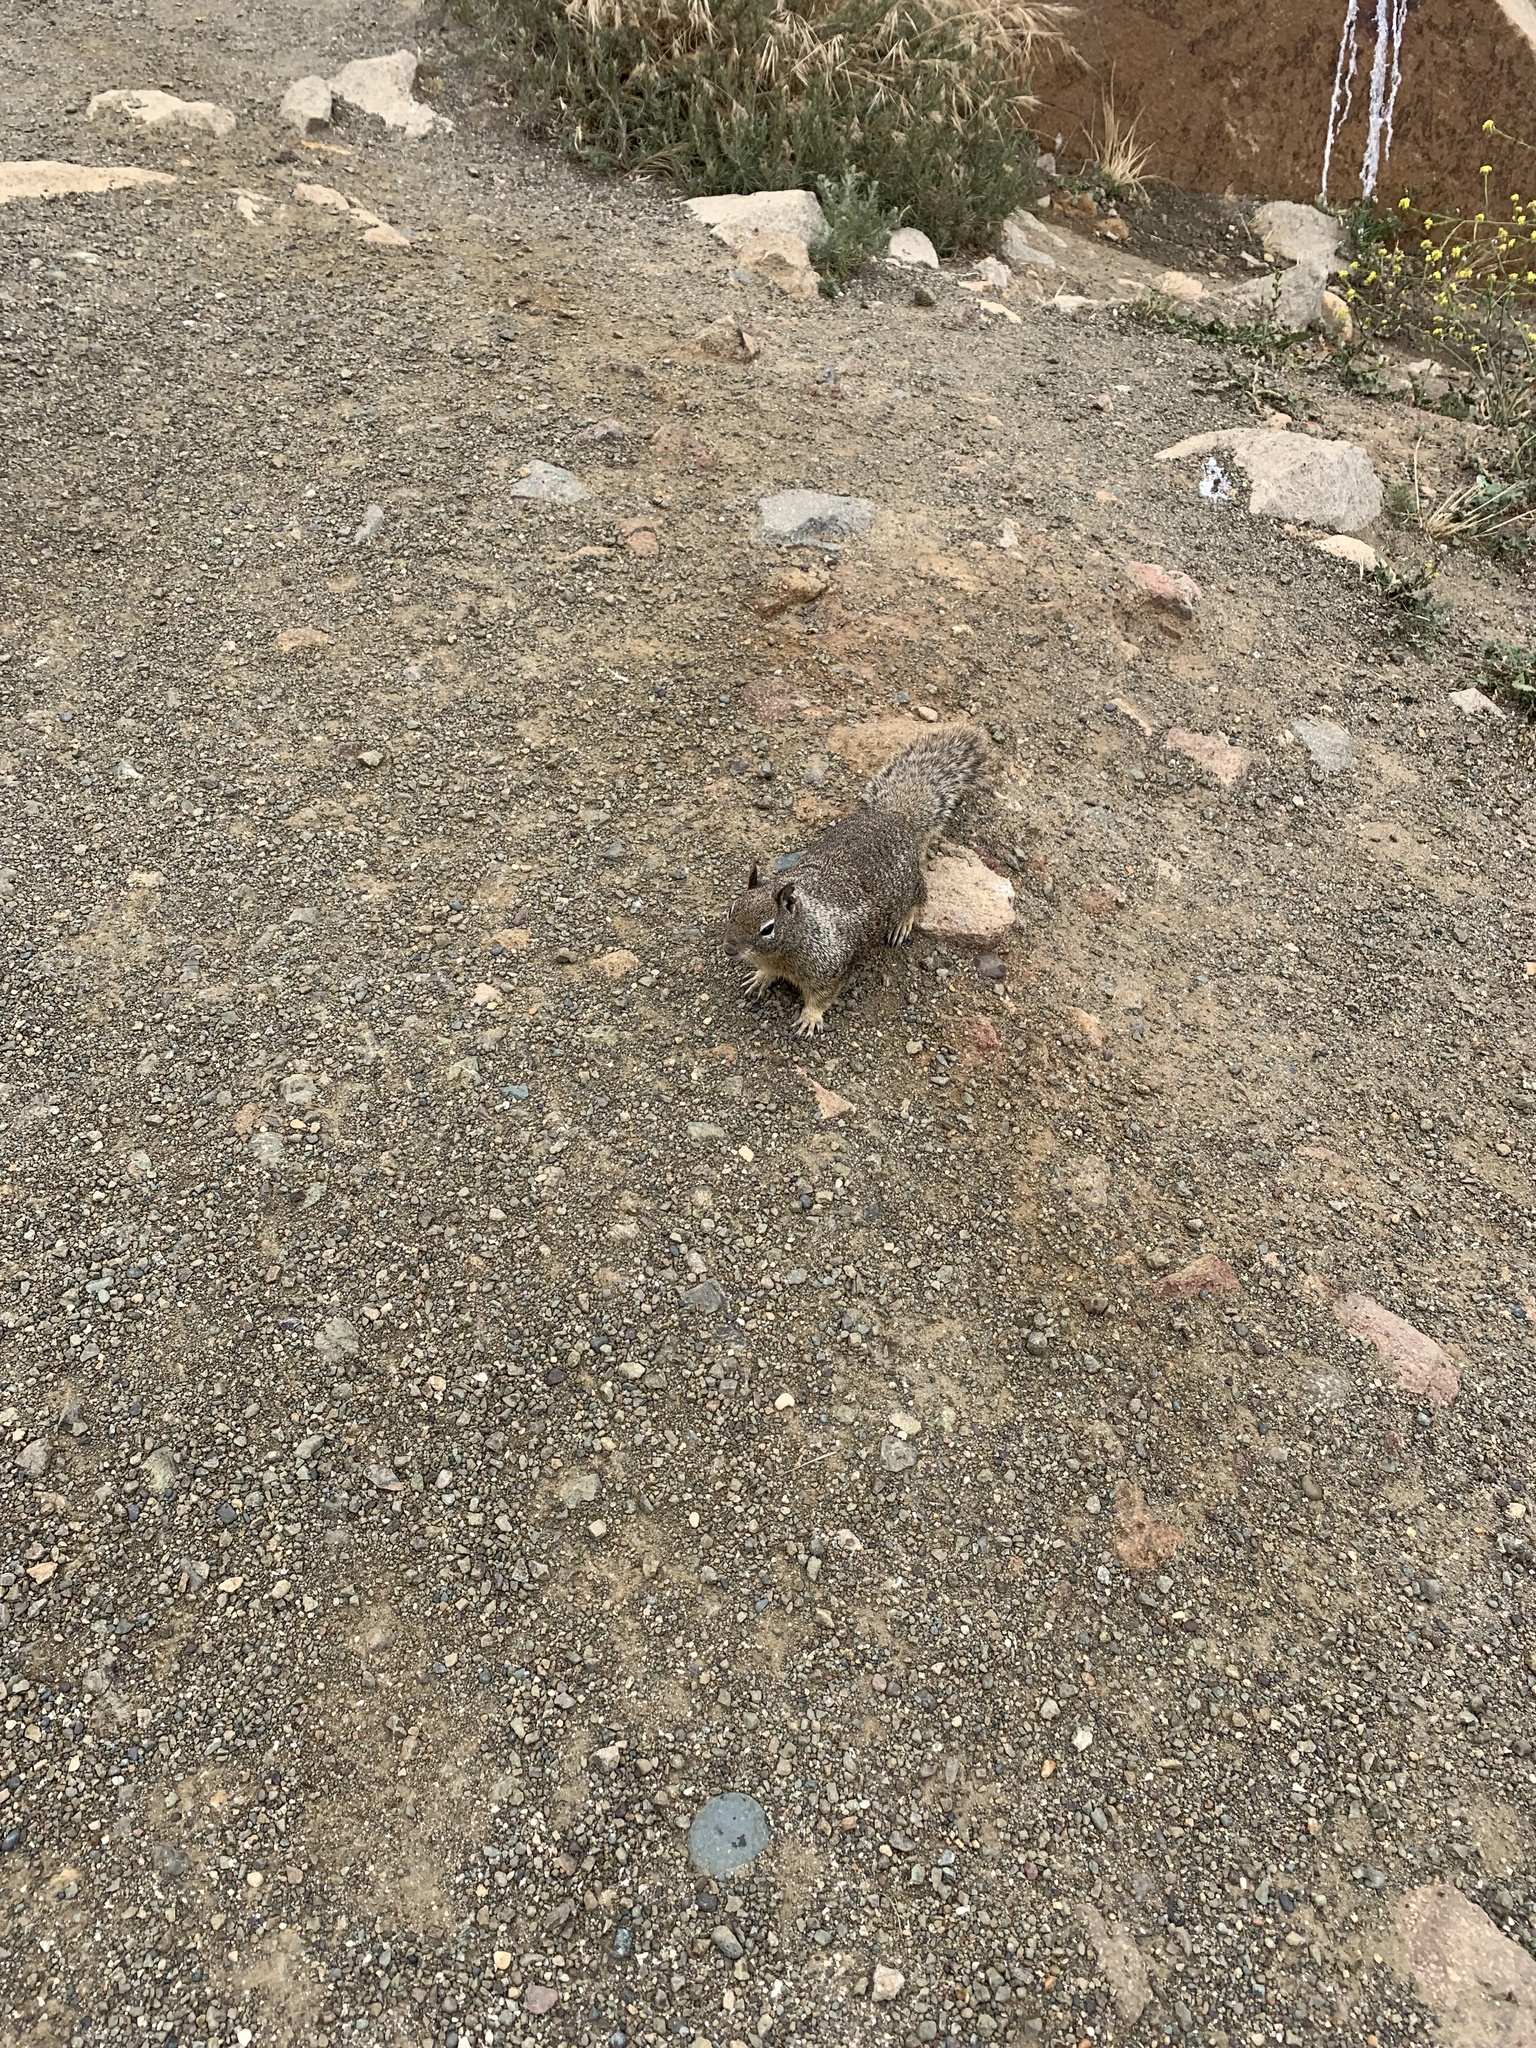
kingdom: Animalia
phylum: Chordata
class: Mammalia
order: Rodentia
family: Sciuridae
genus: Otospermophilus
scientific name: Otospermophilus beecheyi
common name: California ground squirrel
